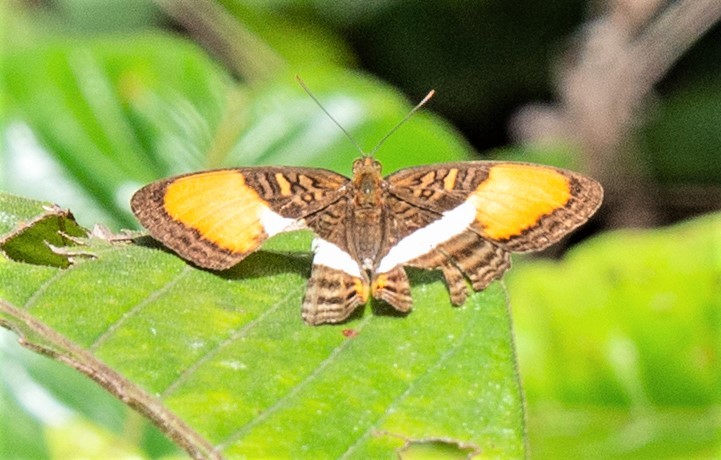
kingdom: Animalia
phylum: Arthropoda
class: Insecta
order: Lepidoptera
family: Nymphalidae
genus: Limenitis
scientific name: Limenitis cytherea
